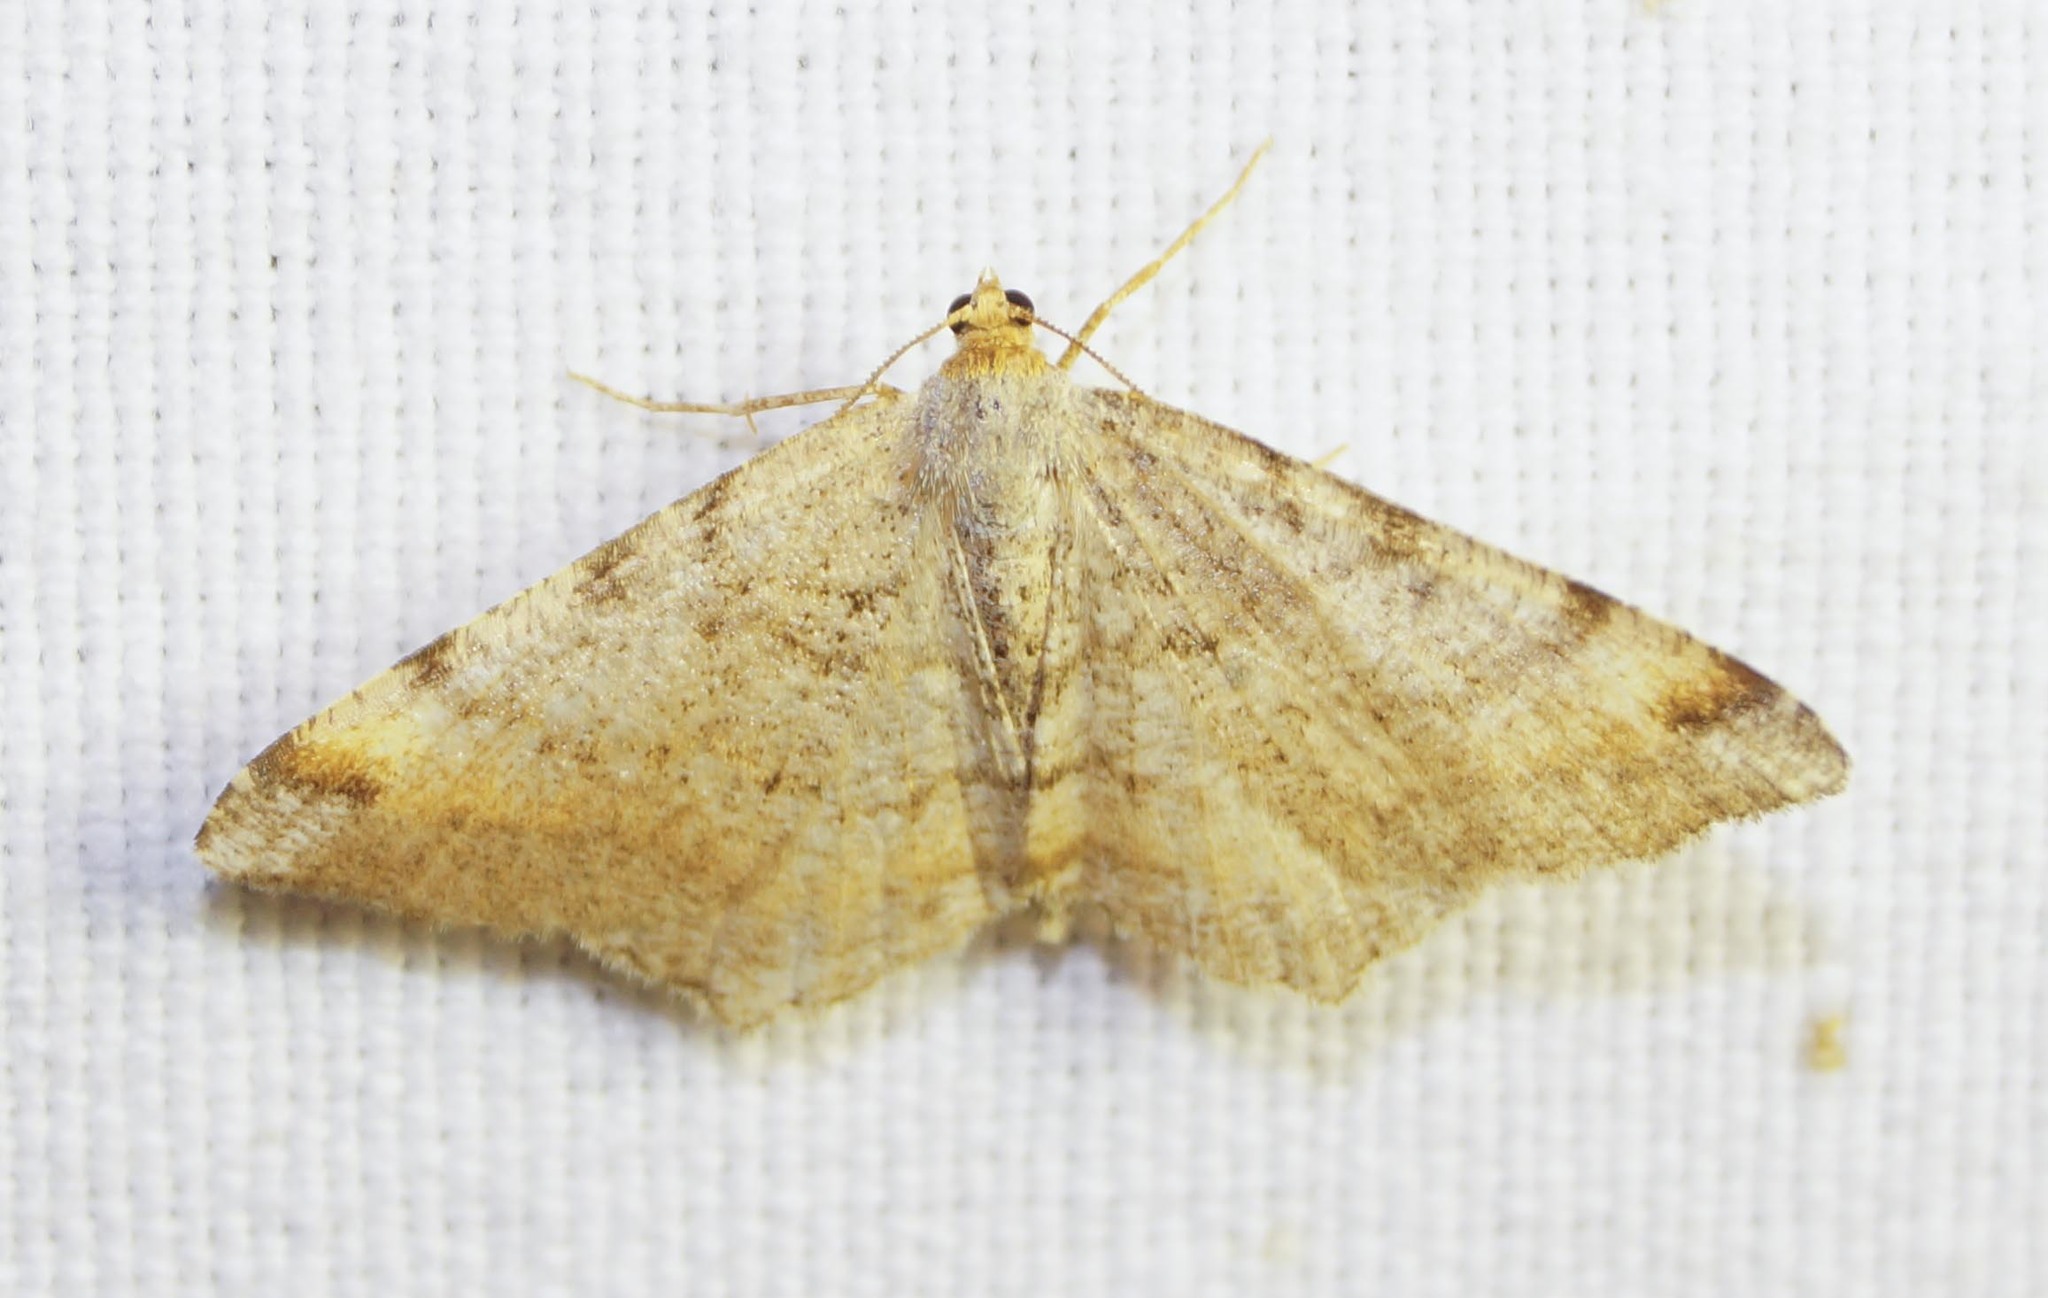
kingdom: Animalia
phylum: Arthropoda
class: Insecta
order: Lepidoptera
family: Geometridae
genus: Macaria
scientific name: Macaria liturata
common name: Tawny-barred angle
